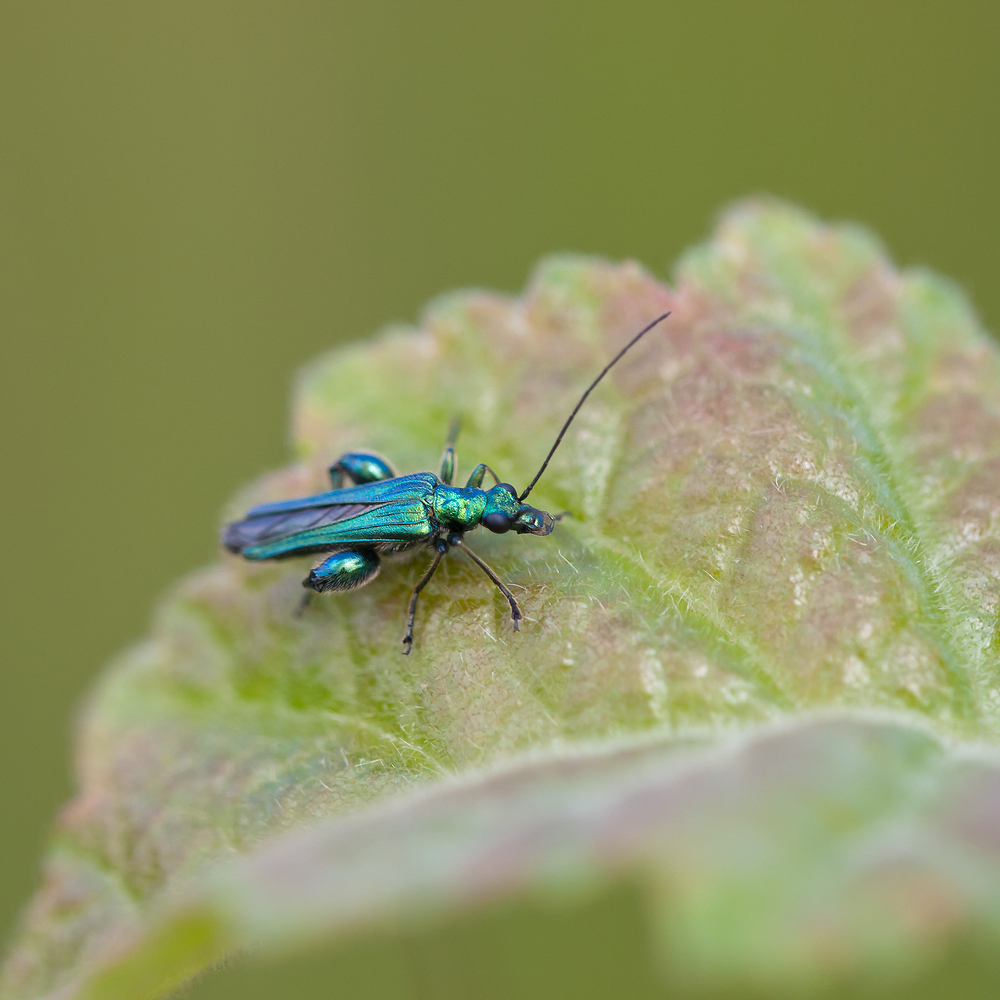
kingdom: Animalia
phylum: Arthropoda
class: Insecta
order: Coleoptera
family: Oedemeridae
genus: Oedemera
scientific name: Oedemera nobilis
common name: Swollen-thighed beetle
